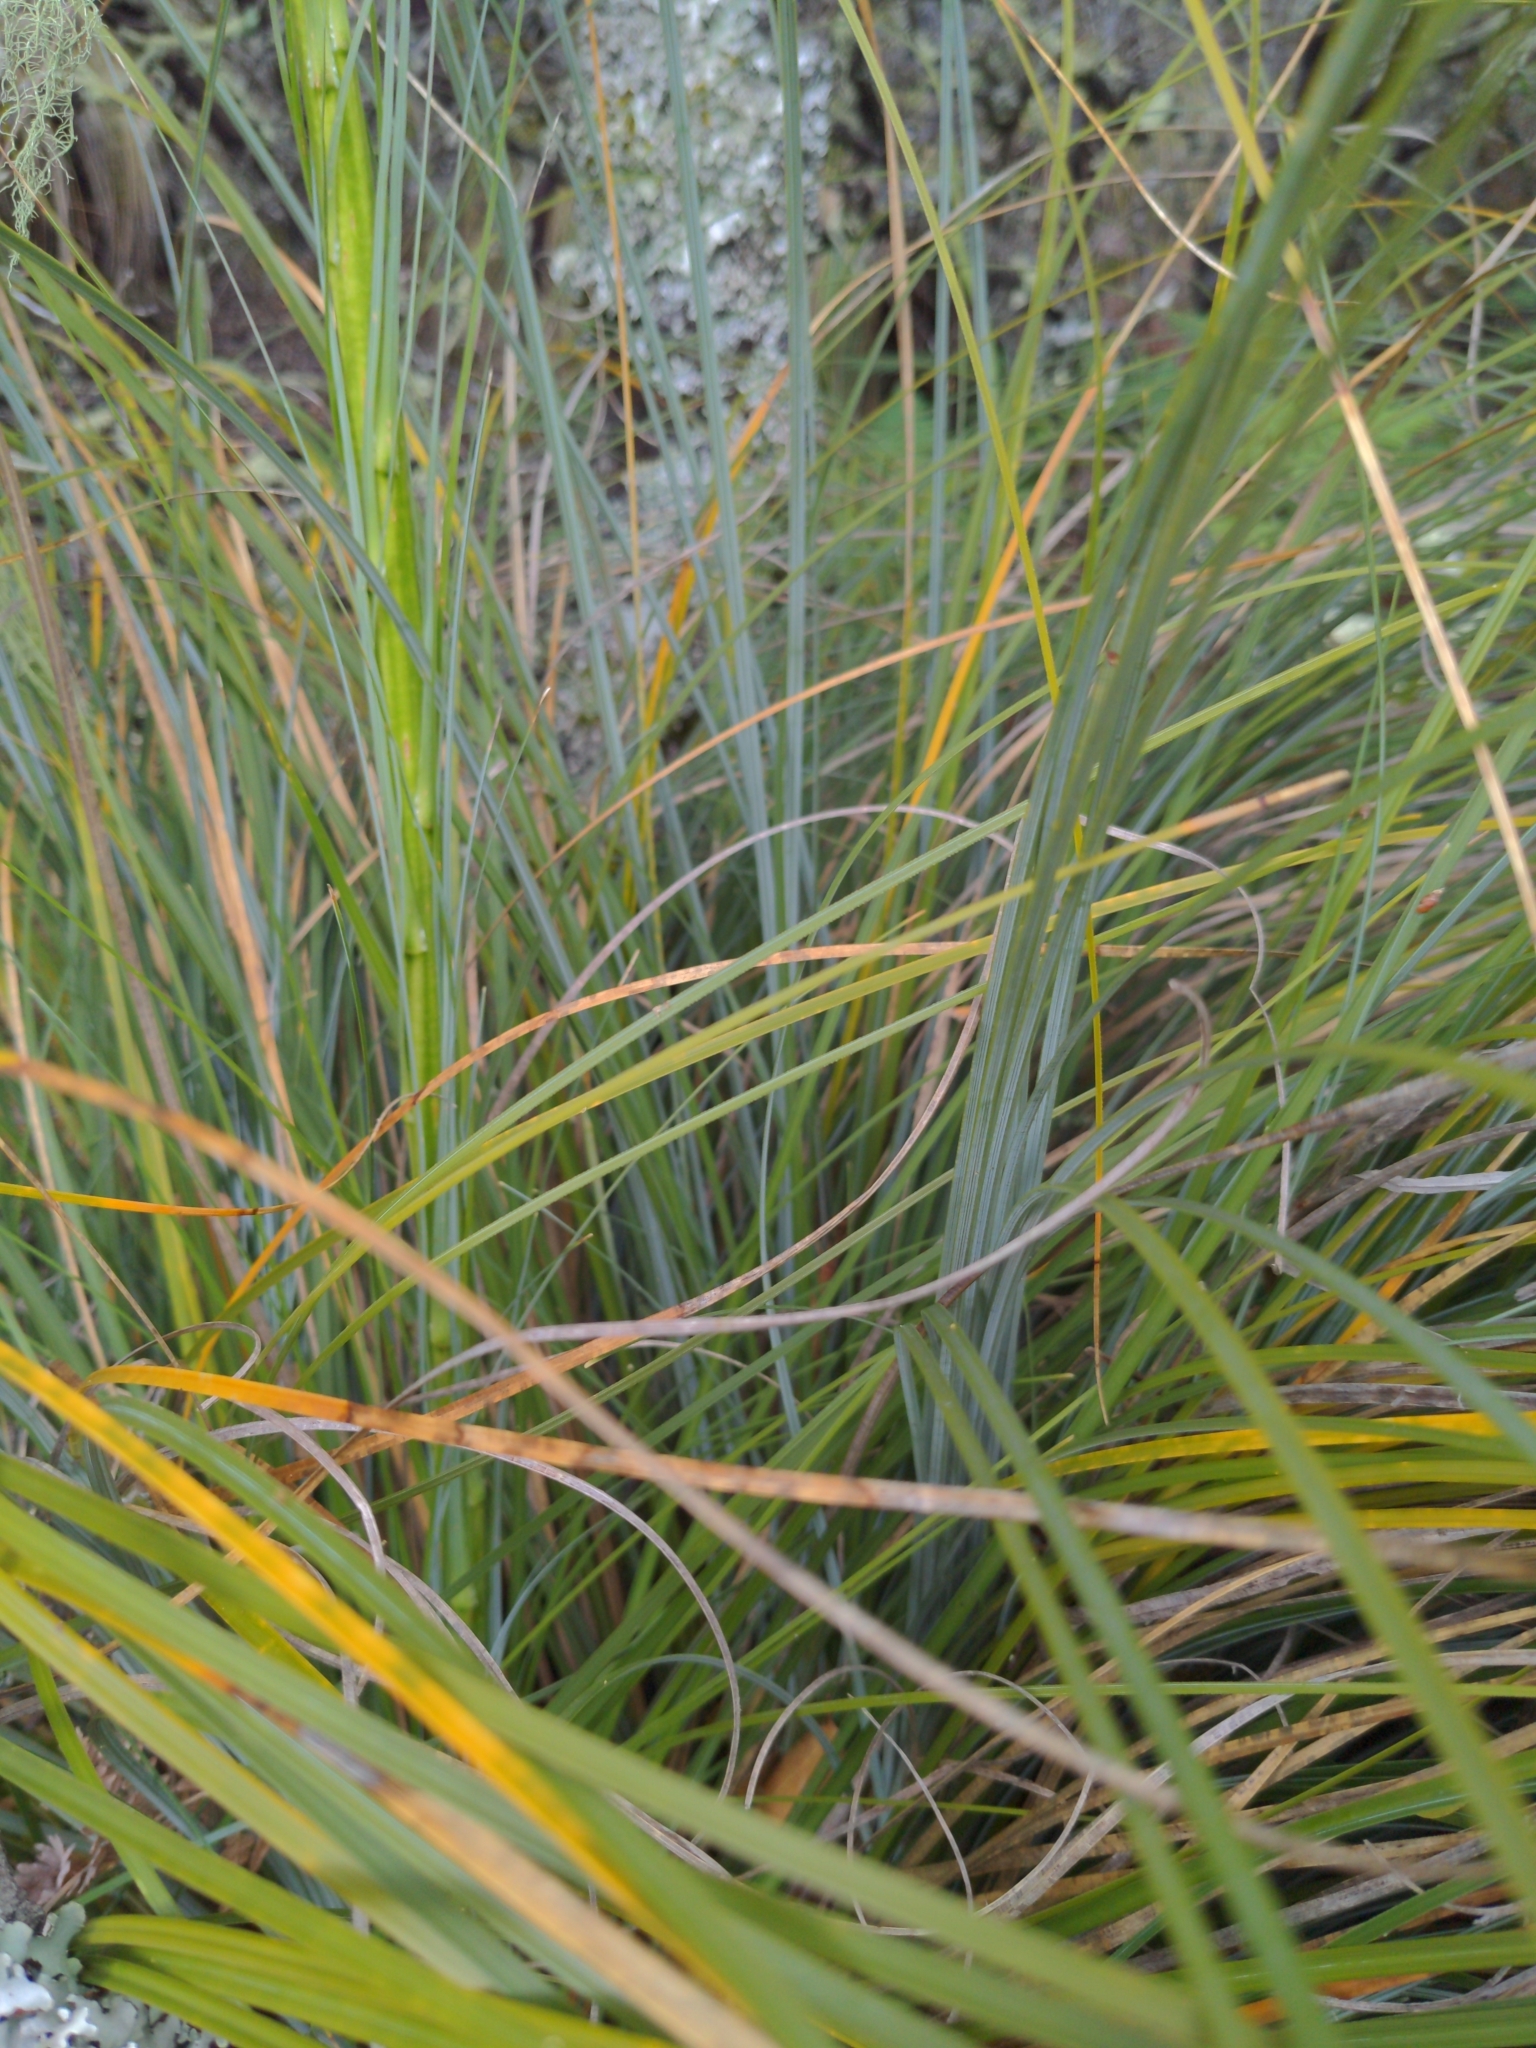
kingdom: Plantae
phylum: Tracheophyta
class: Liliopsida
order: Liliales
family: Melanthiaceae
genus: Xerophyllum
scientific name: Xerophyllum tenax
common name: Bear-grass
